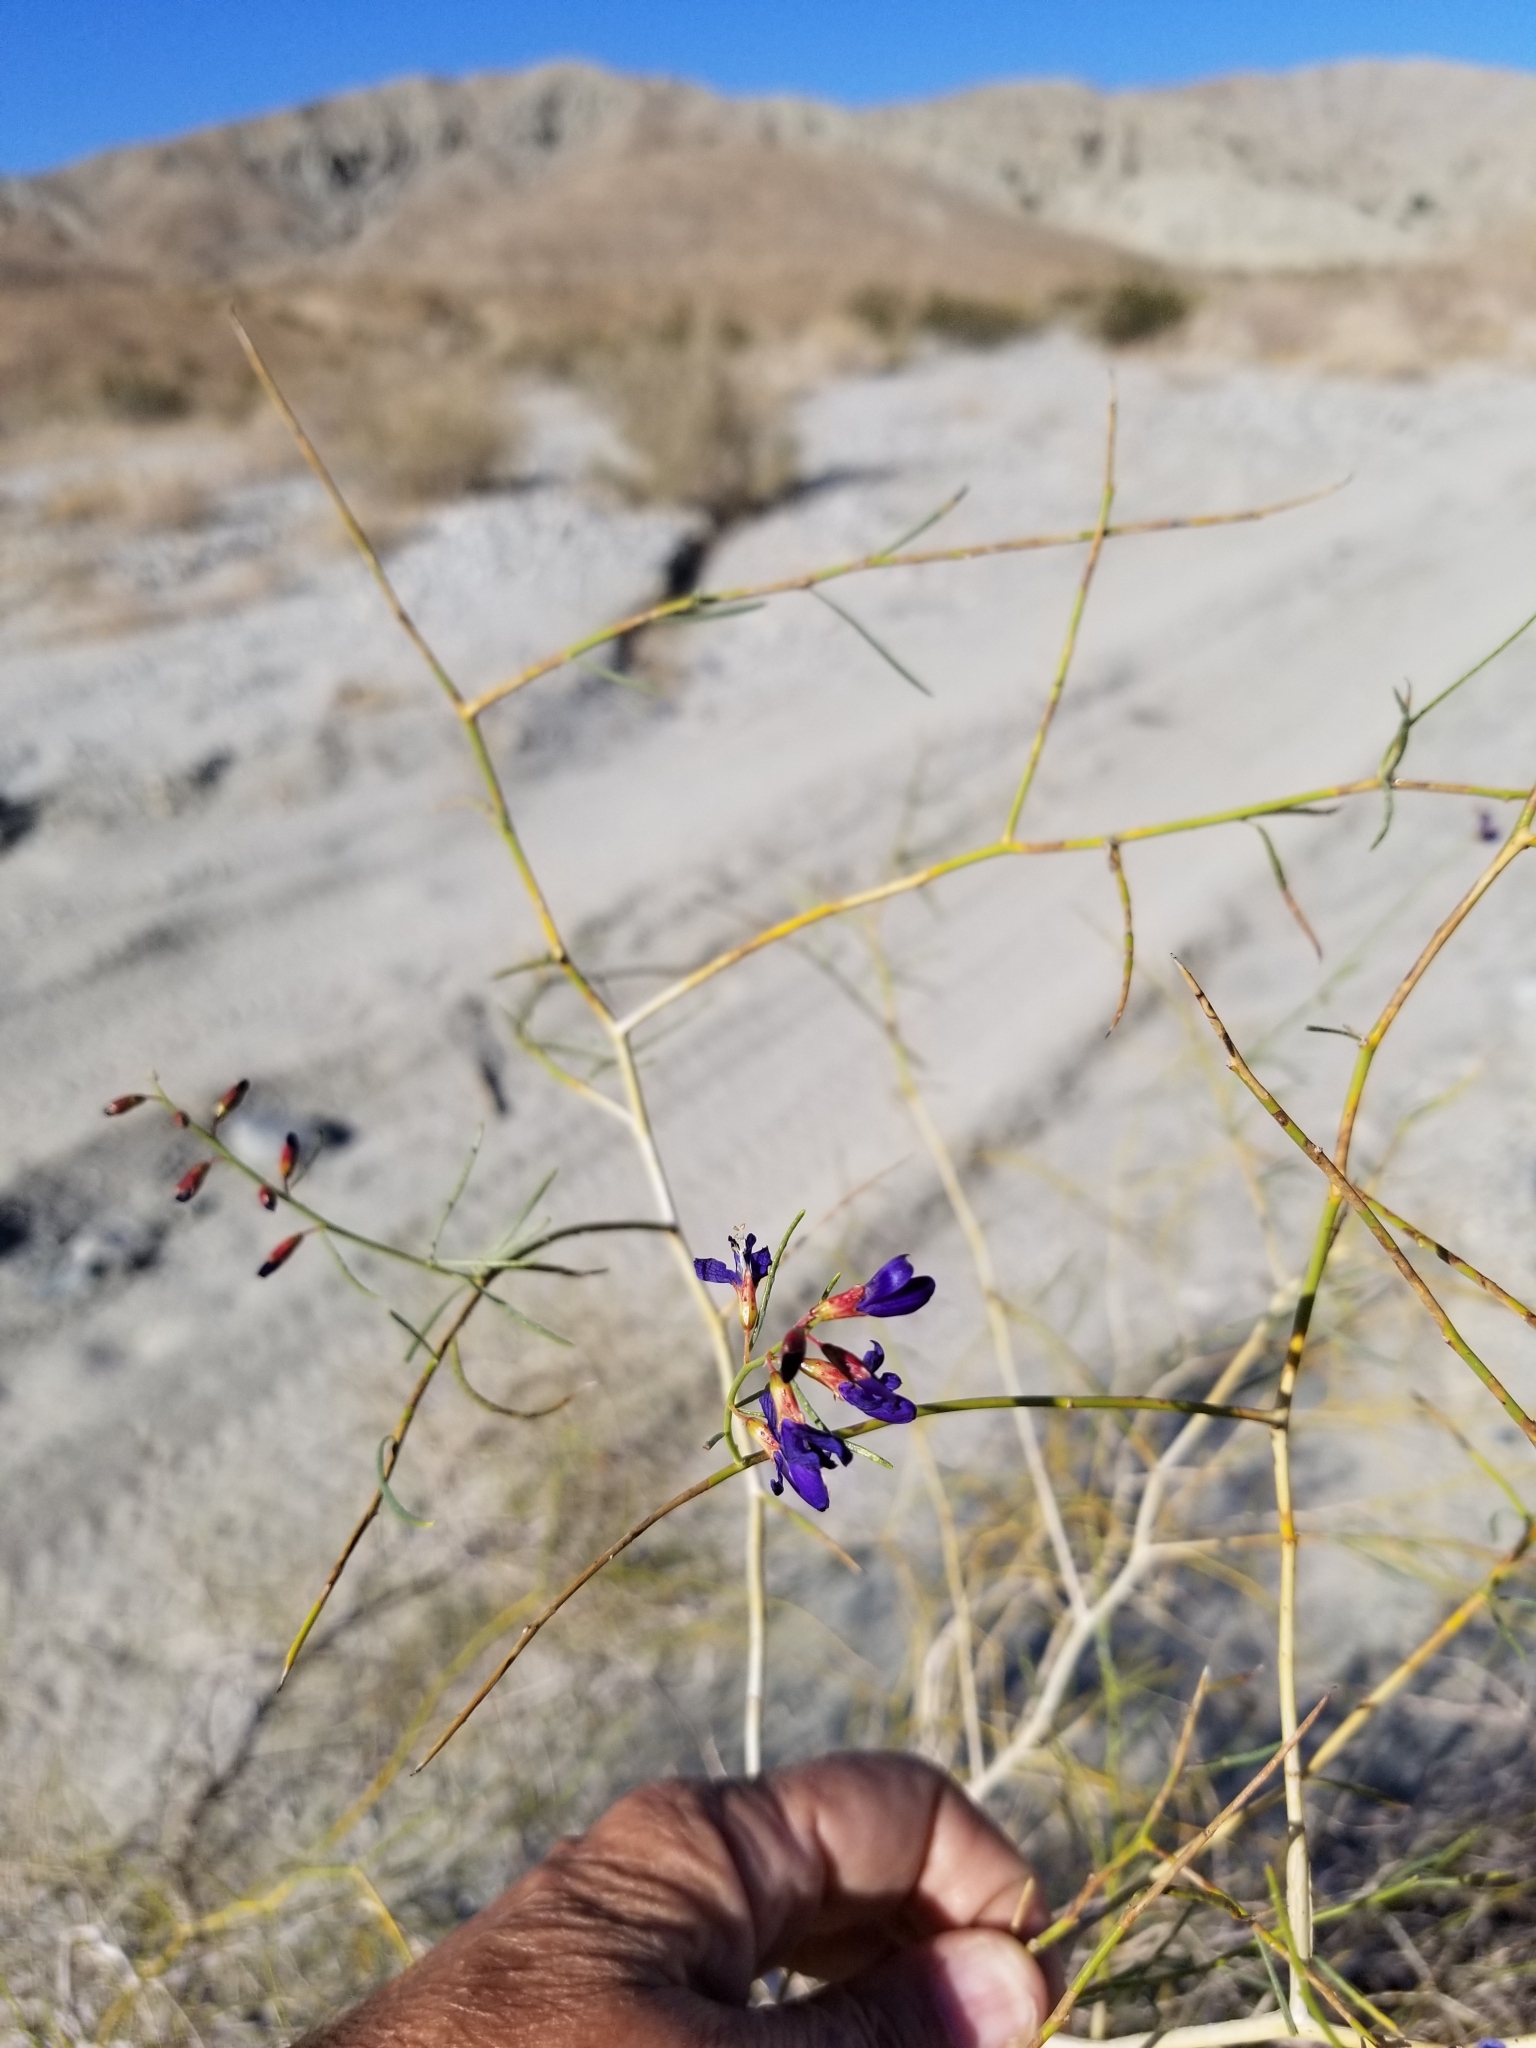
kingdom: Plantae
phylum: Tracheophyta
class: Magnoliopsida
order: Fabales
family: Fabaceae
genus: Psorothamnus
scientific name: Psorothamnus schottii
